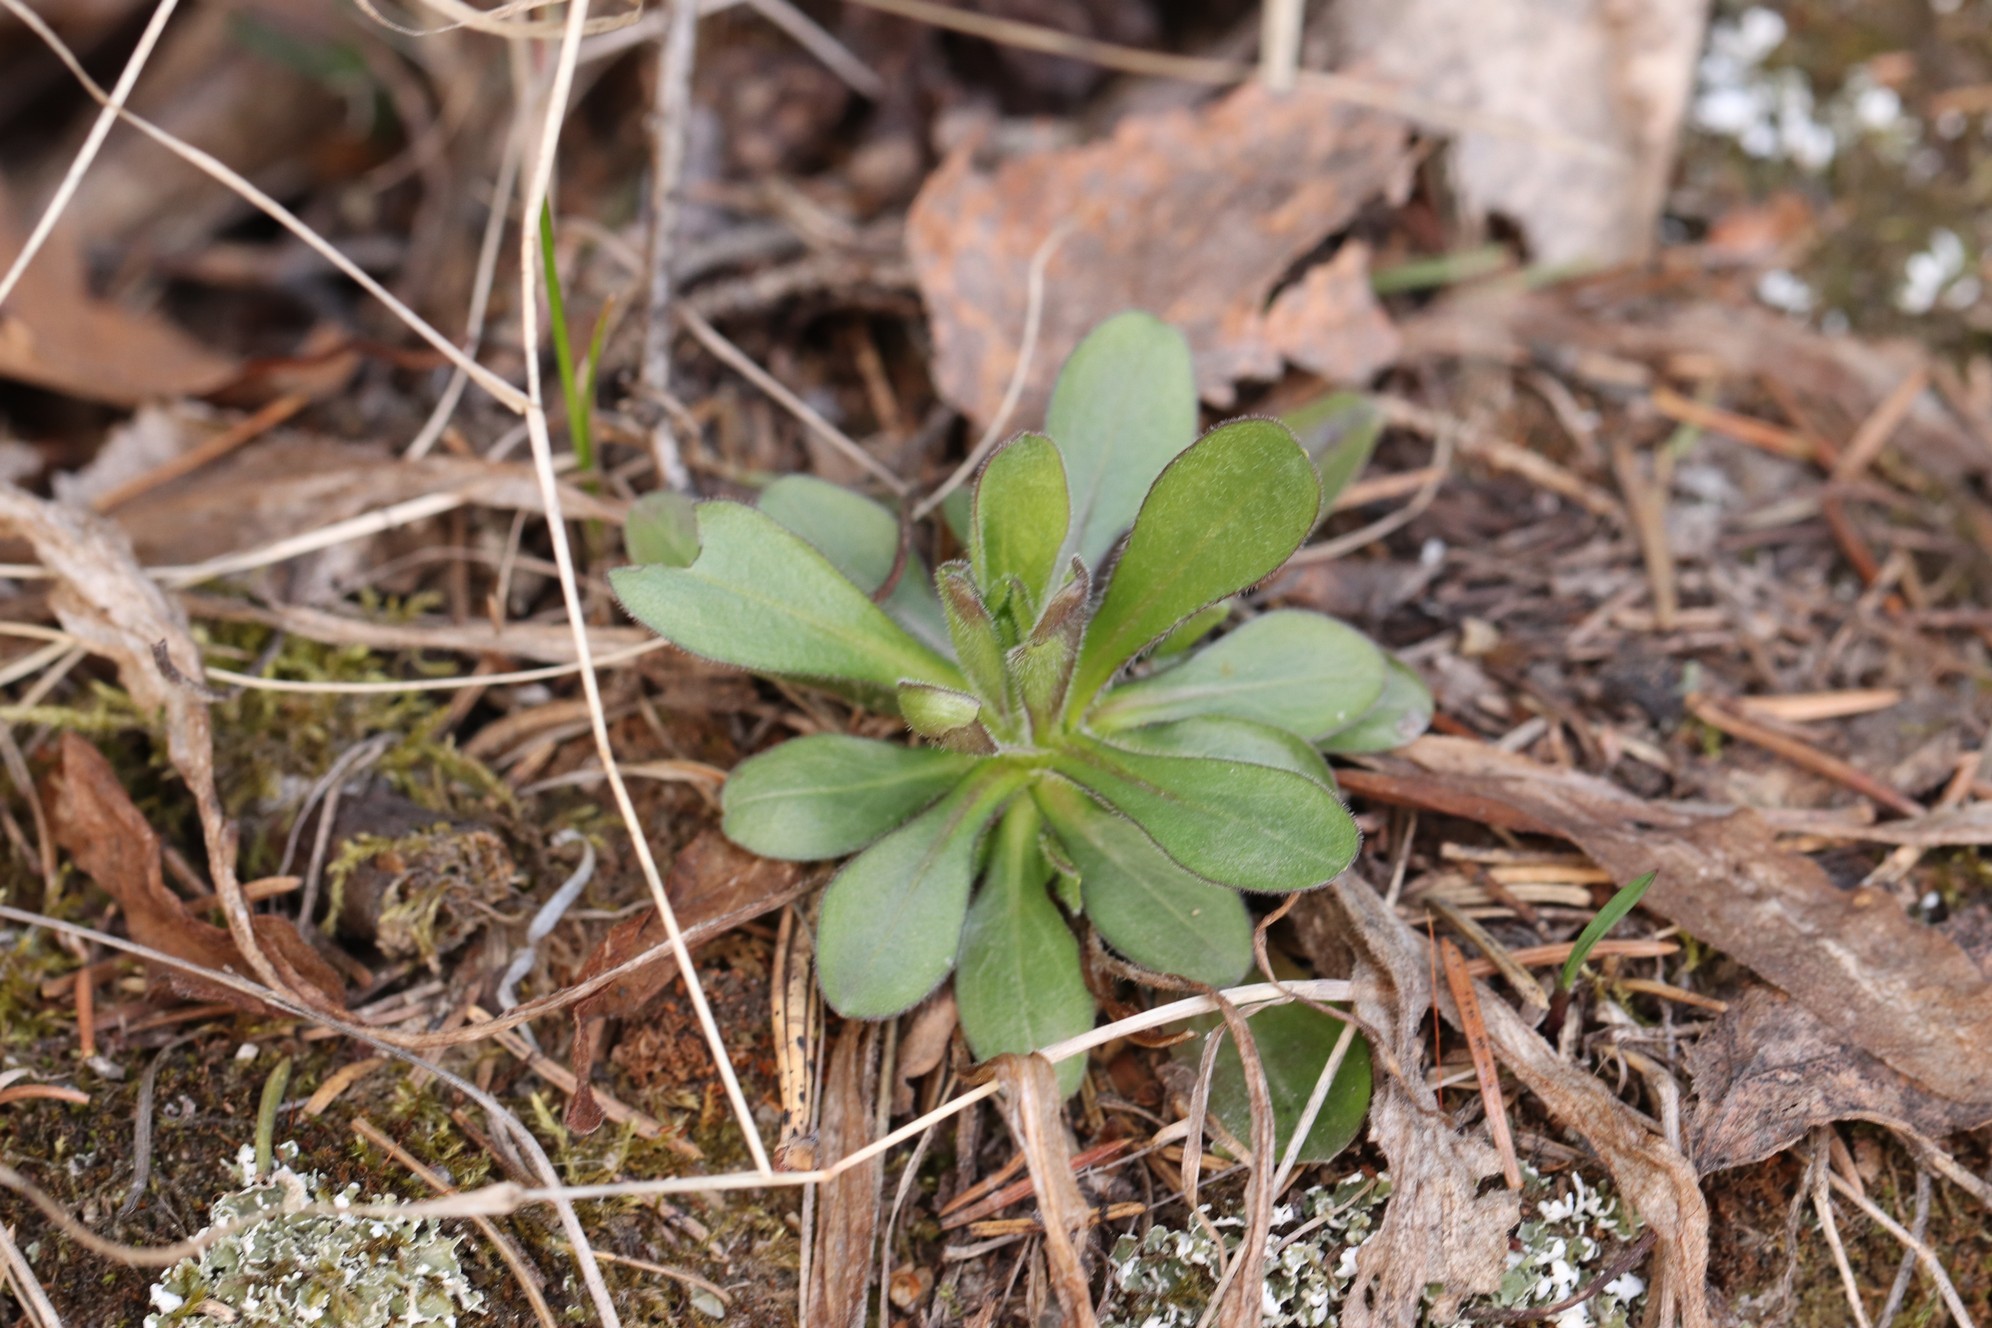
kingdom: Plantae
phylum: Tracheophyta
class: Magnoliopsida
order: Ericales
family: Primulaceae
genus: Androsace
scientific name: Androsace septentrionalis
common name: Hairy northern fairy-candelabra
